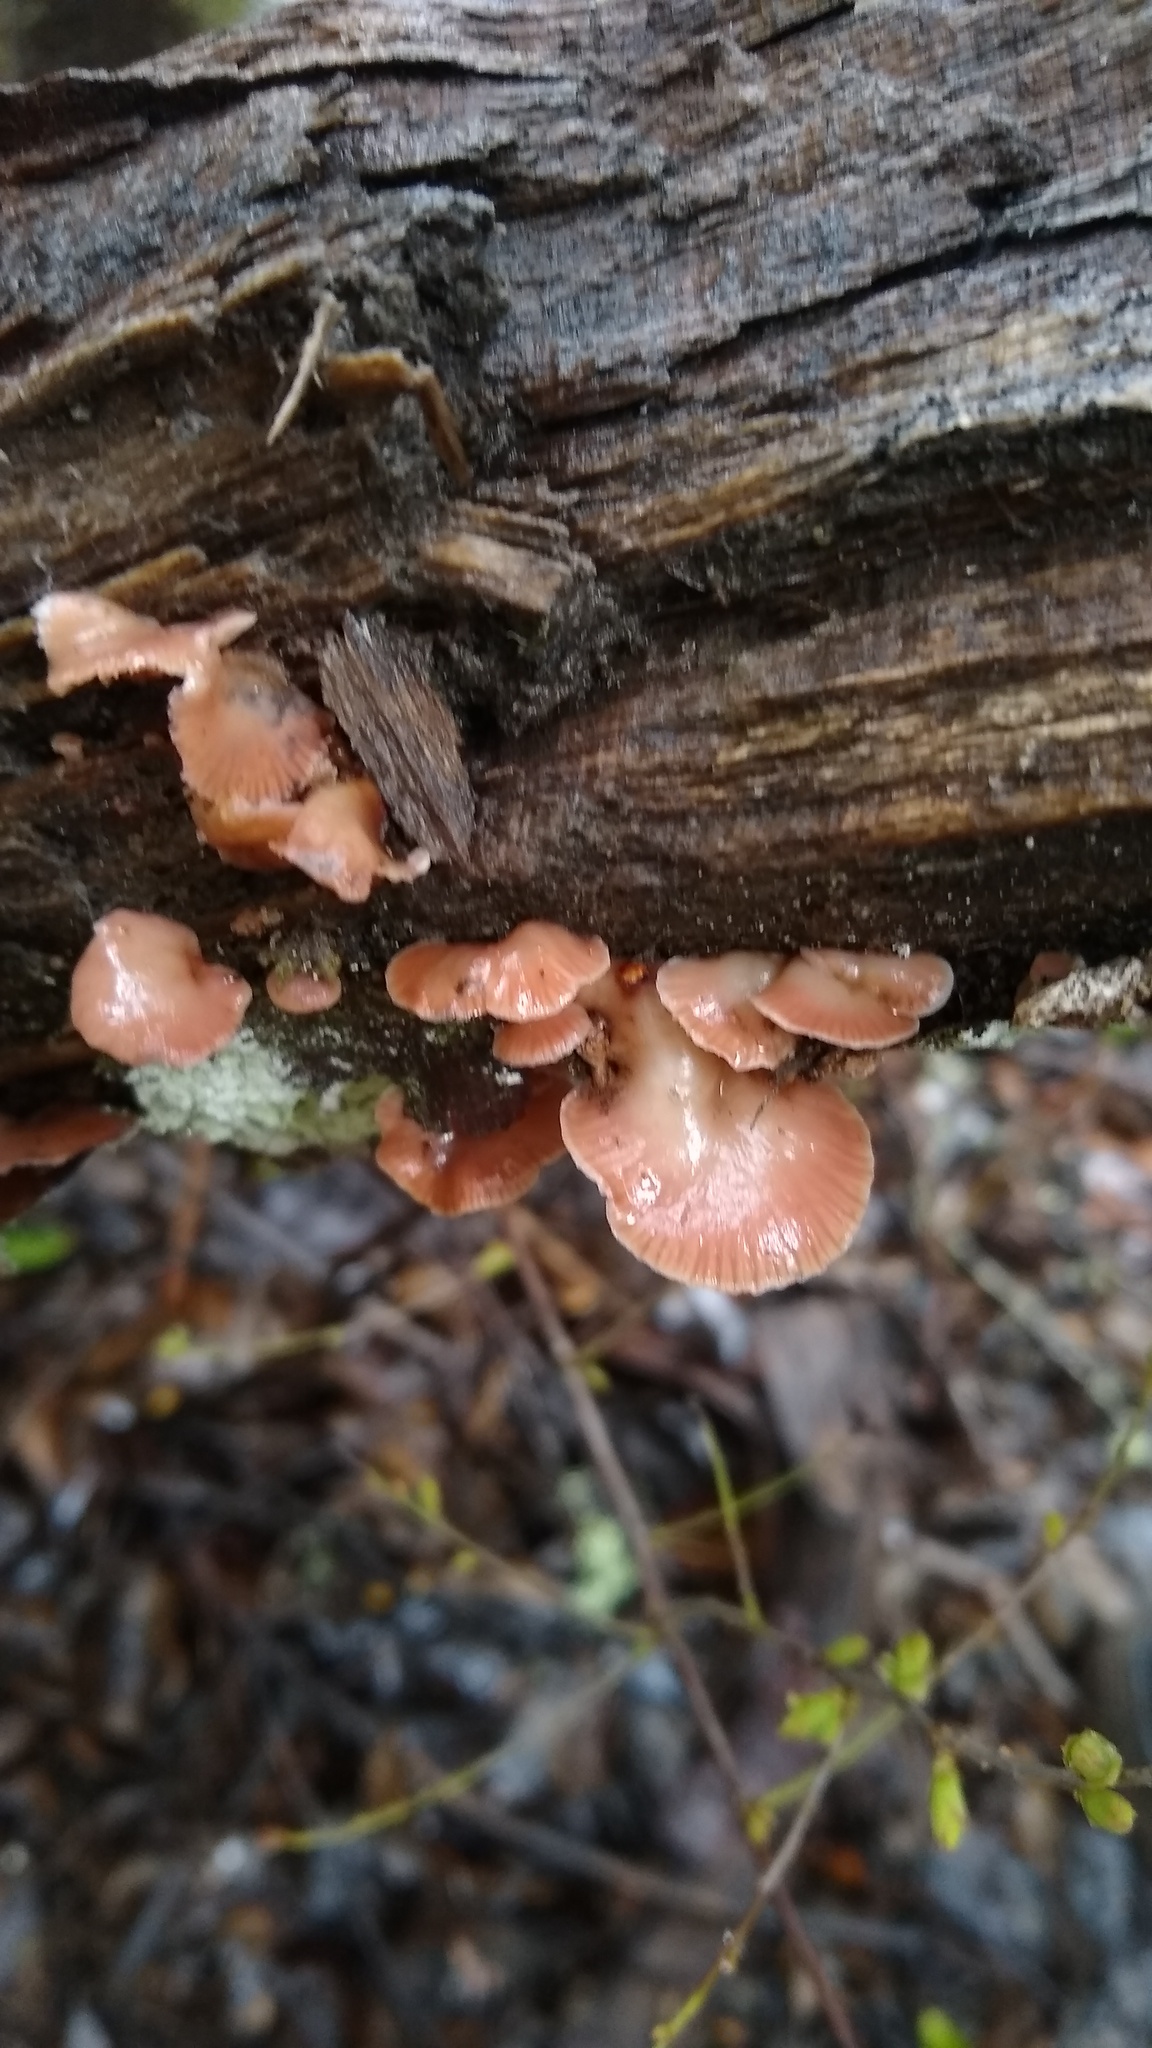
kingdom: Fungi
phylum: Basidiomycota
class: Agaricomycetes
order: Agaricales
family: Mycenaceae
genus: Panellus
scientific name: Panellus longinquus
